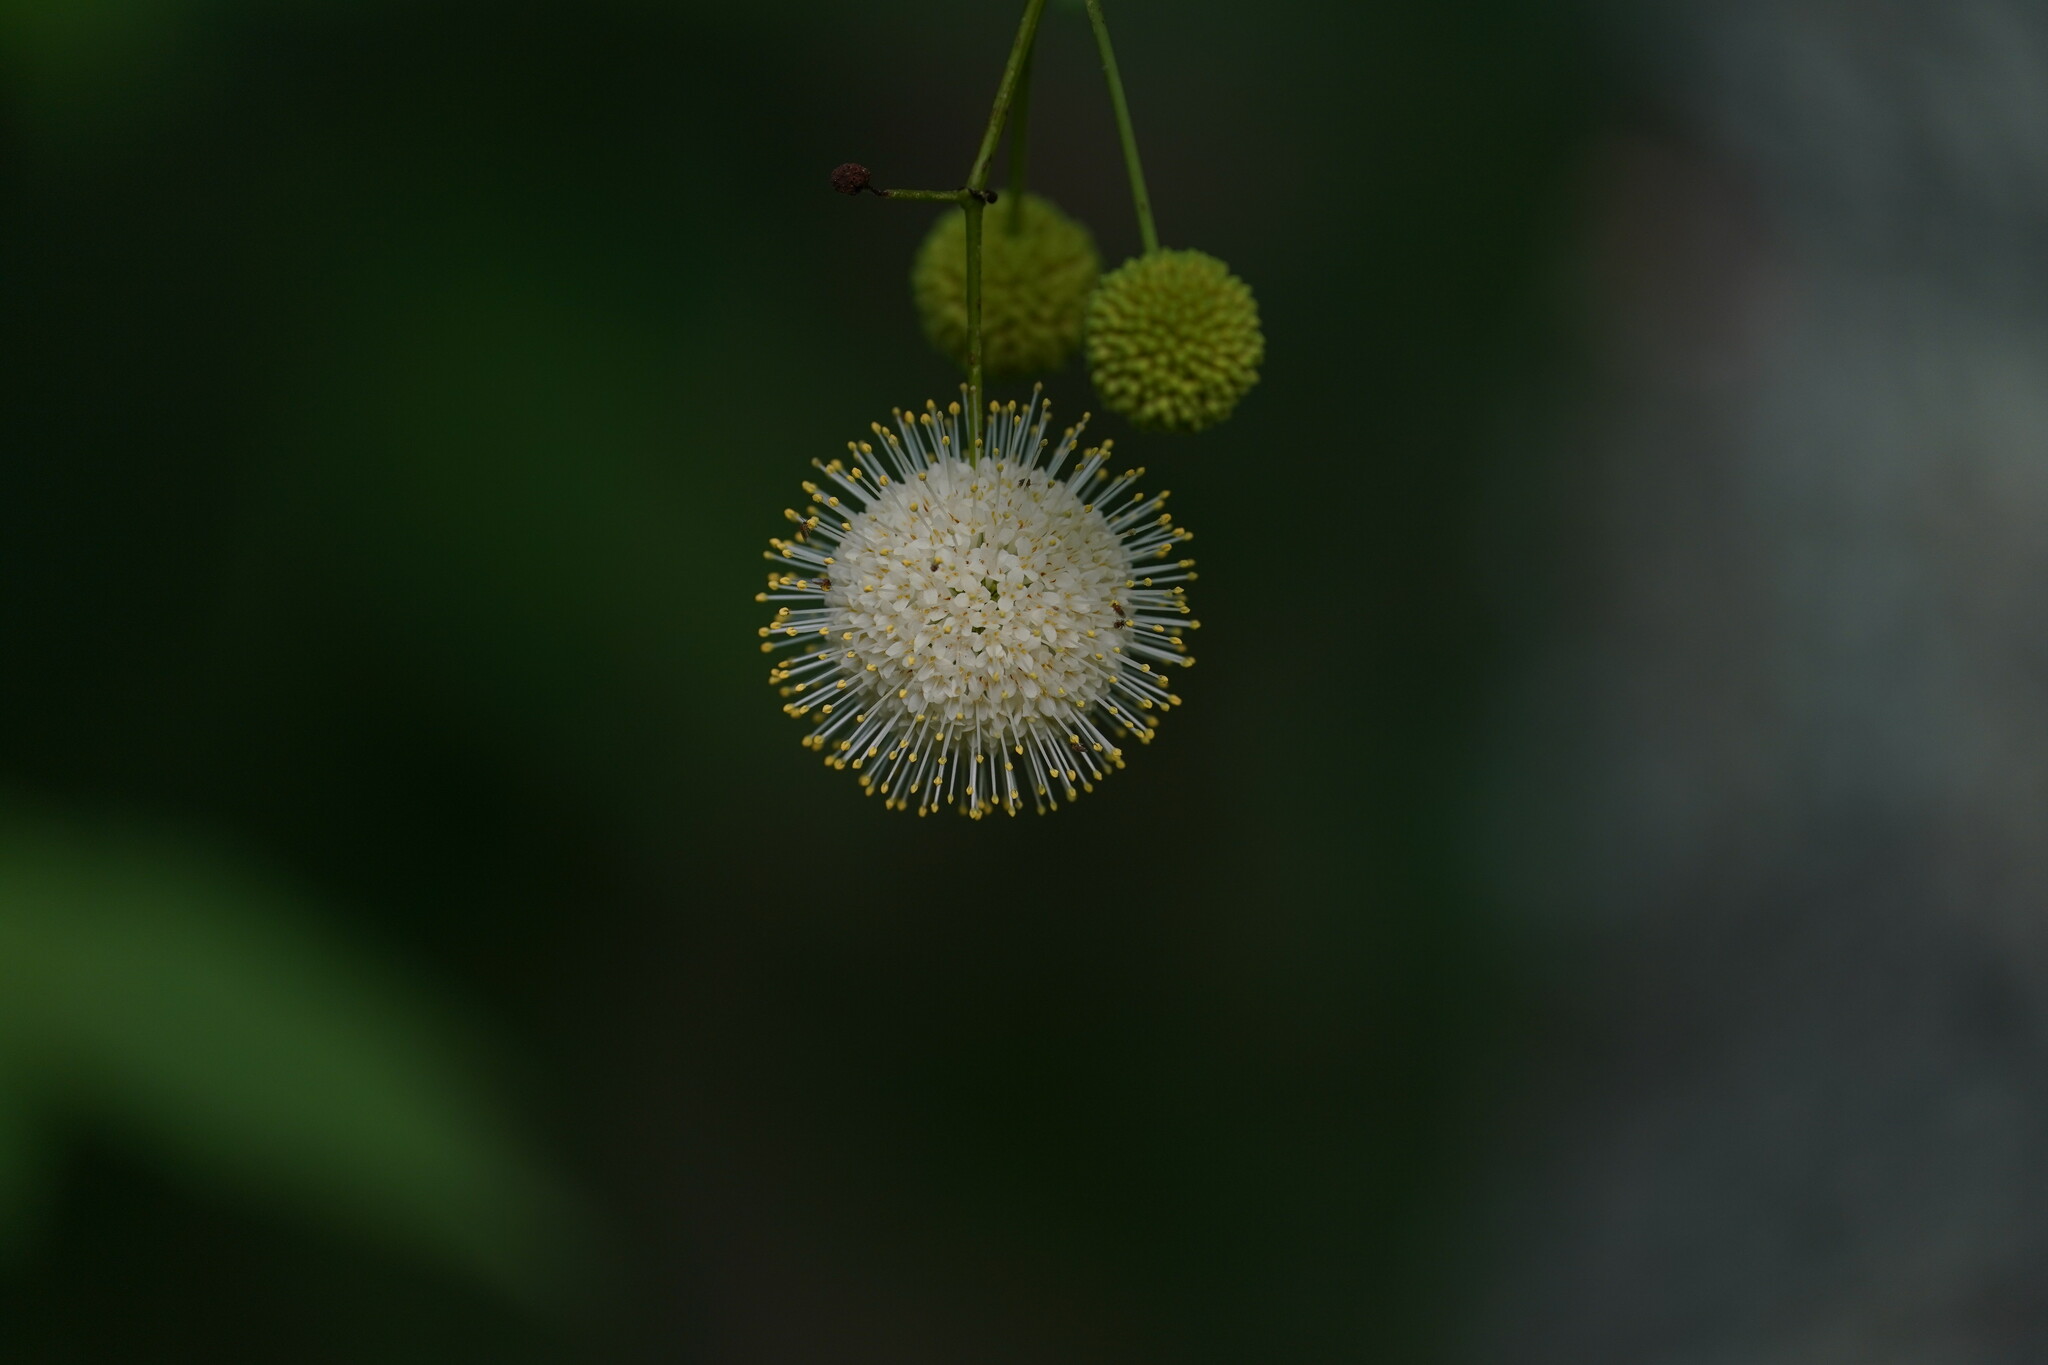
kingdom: Plantae
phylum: Tracheophyta
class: Magnoliopsida
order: Gentianales
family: Rubiaceae
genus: Cephalanthus
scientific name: Cephalanthus occidentalis
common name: Button-willow
